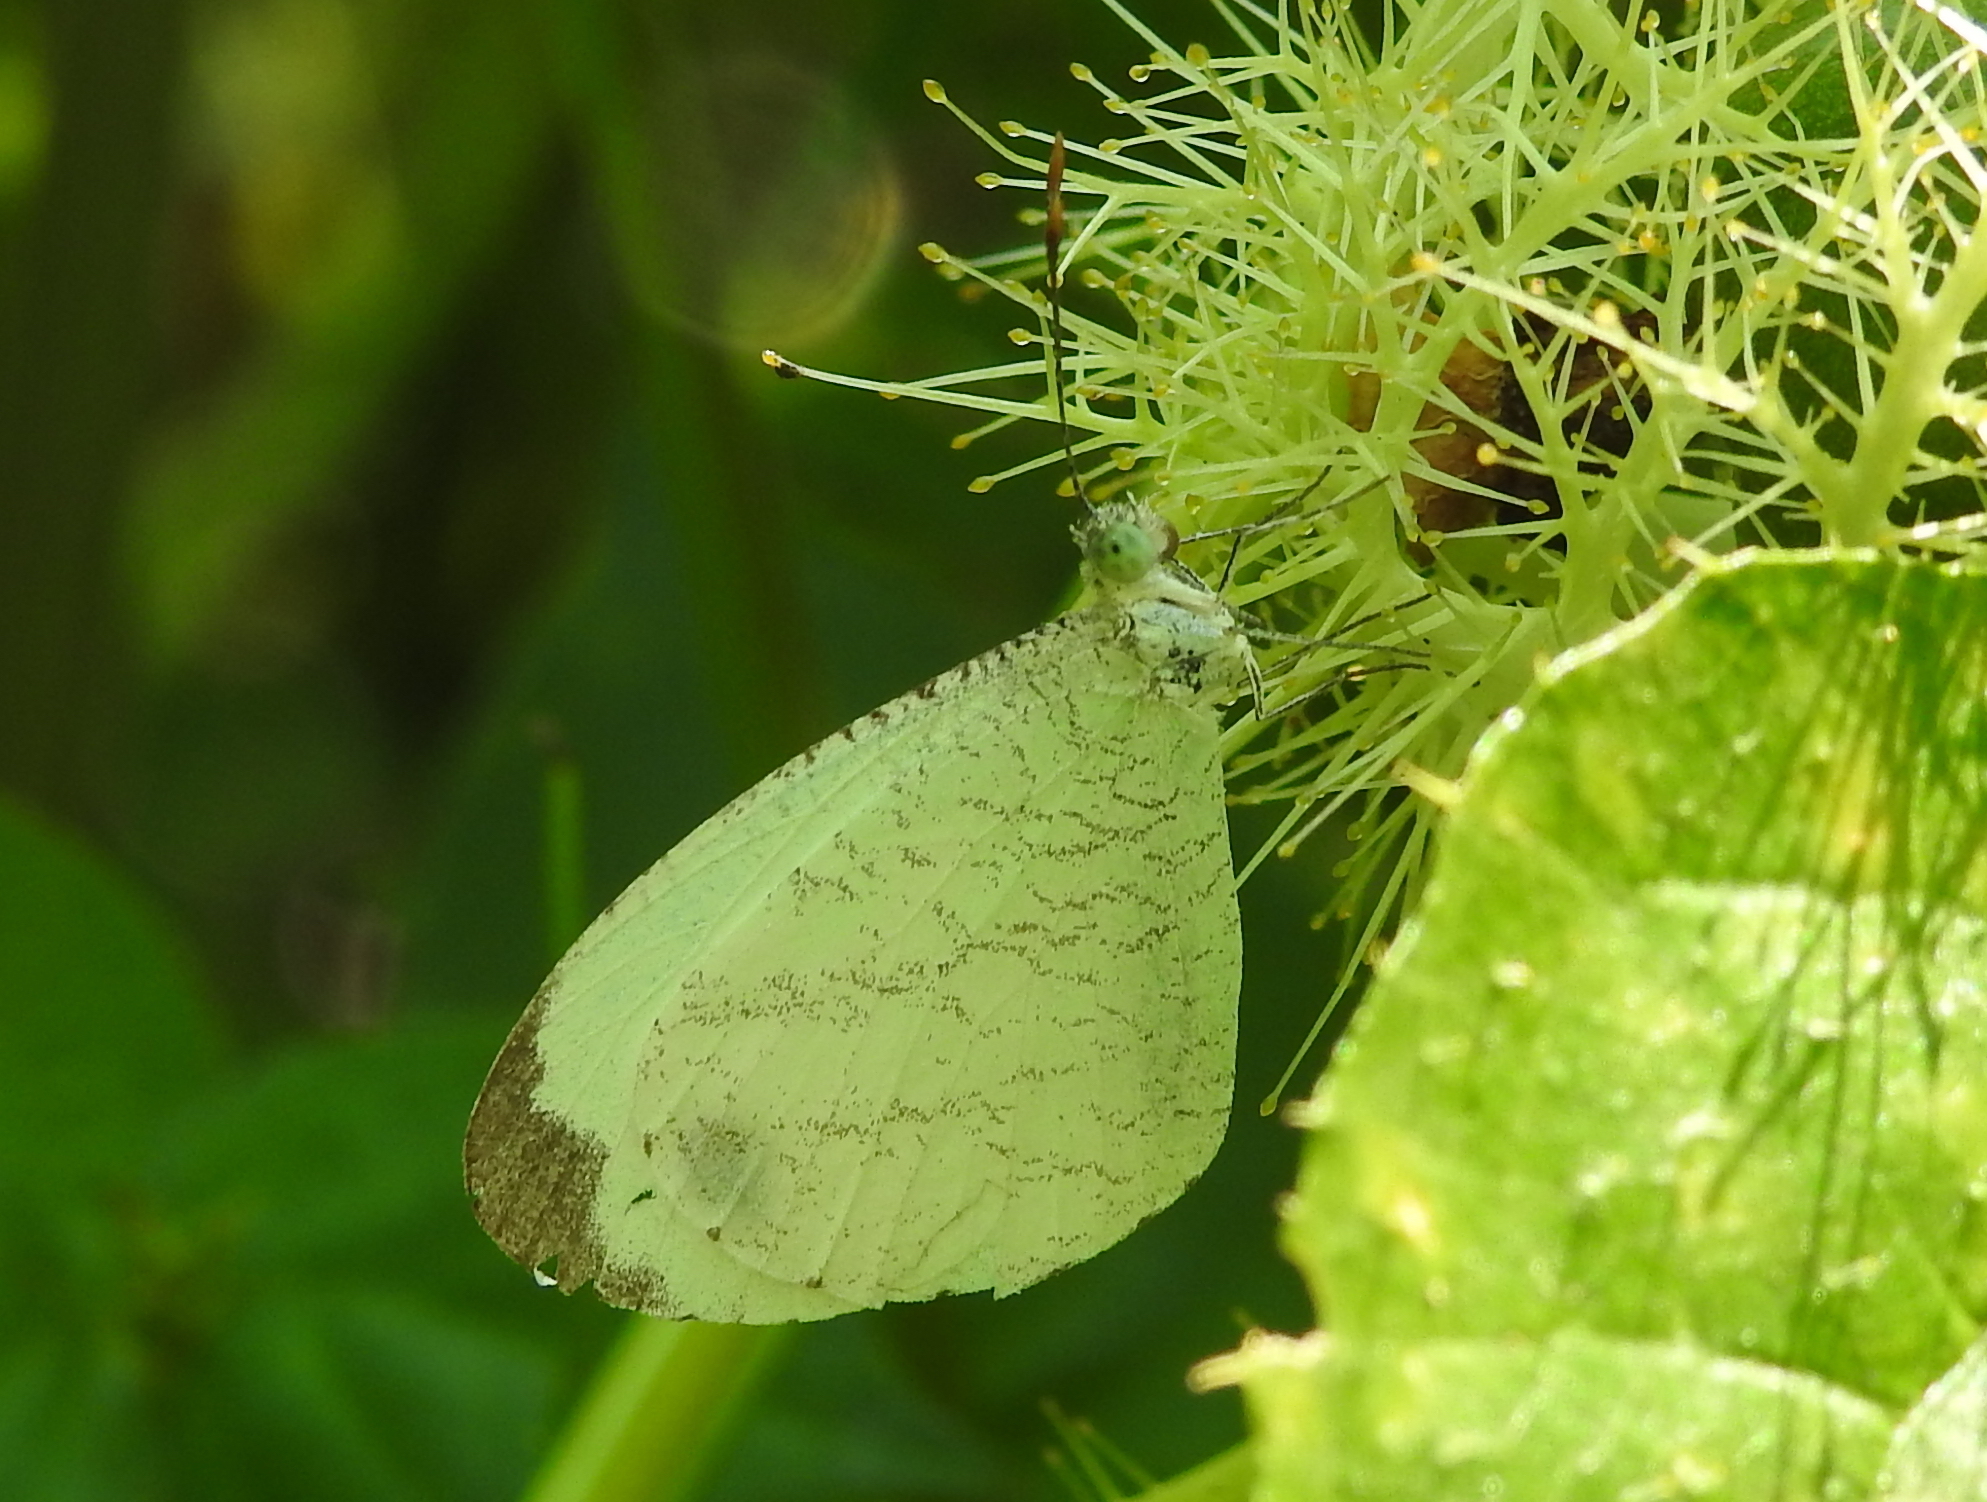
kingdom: Animalia
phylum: Arthropoda
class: Insecta
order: Lepidoptera
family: Pieridae
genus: Leptosia
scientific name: Leptosia nina
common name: Psyche
